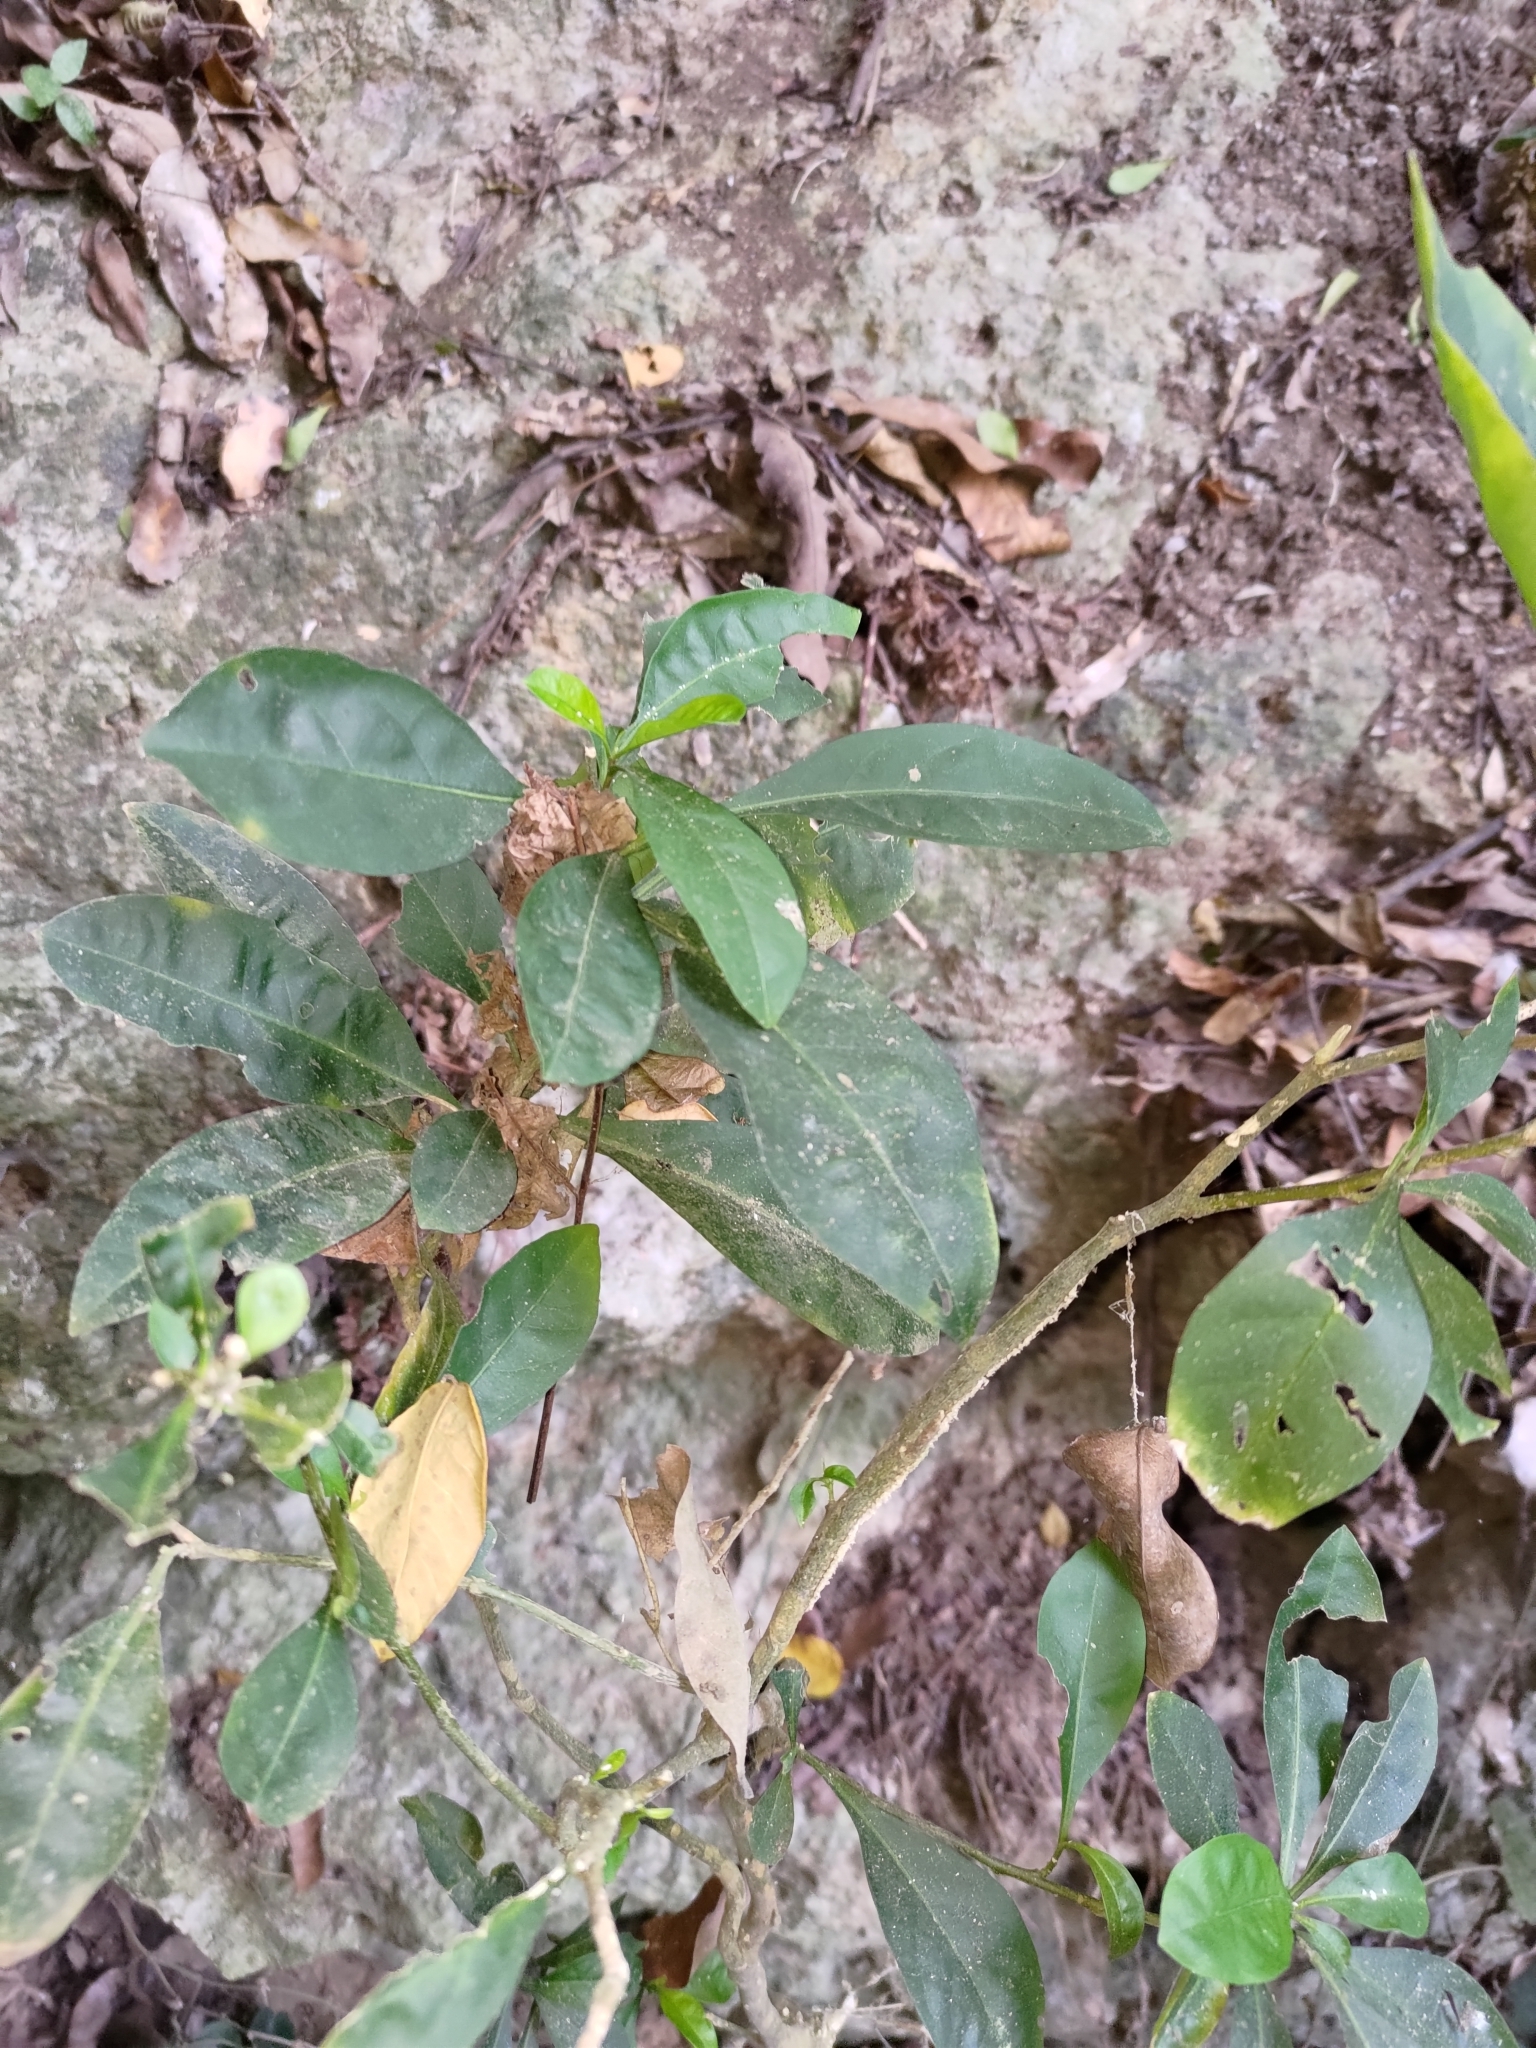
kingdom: Plantae
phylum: Tracheophyta
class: Magnoliopsida
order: Solanales
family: Solanaceae
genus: Solanum
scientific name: Solanum diphyllum
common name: Twoleaf nightshade
